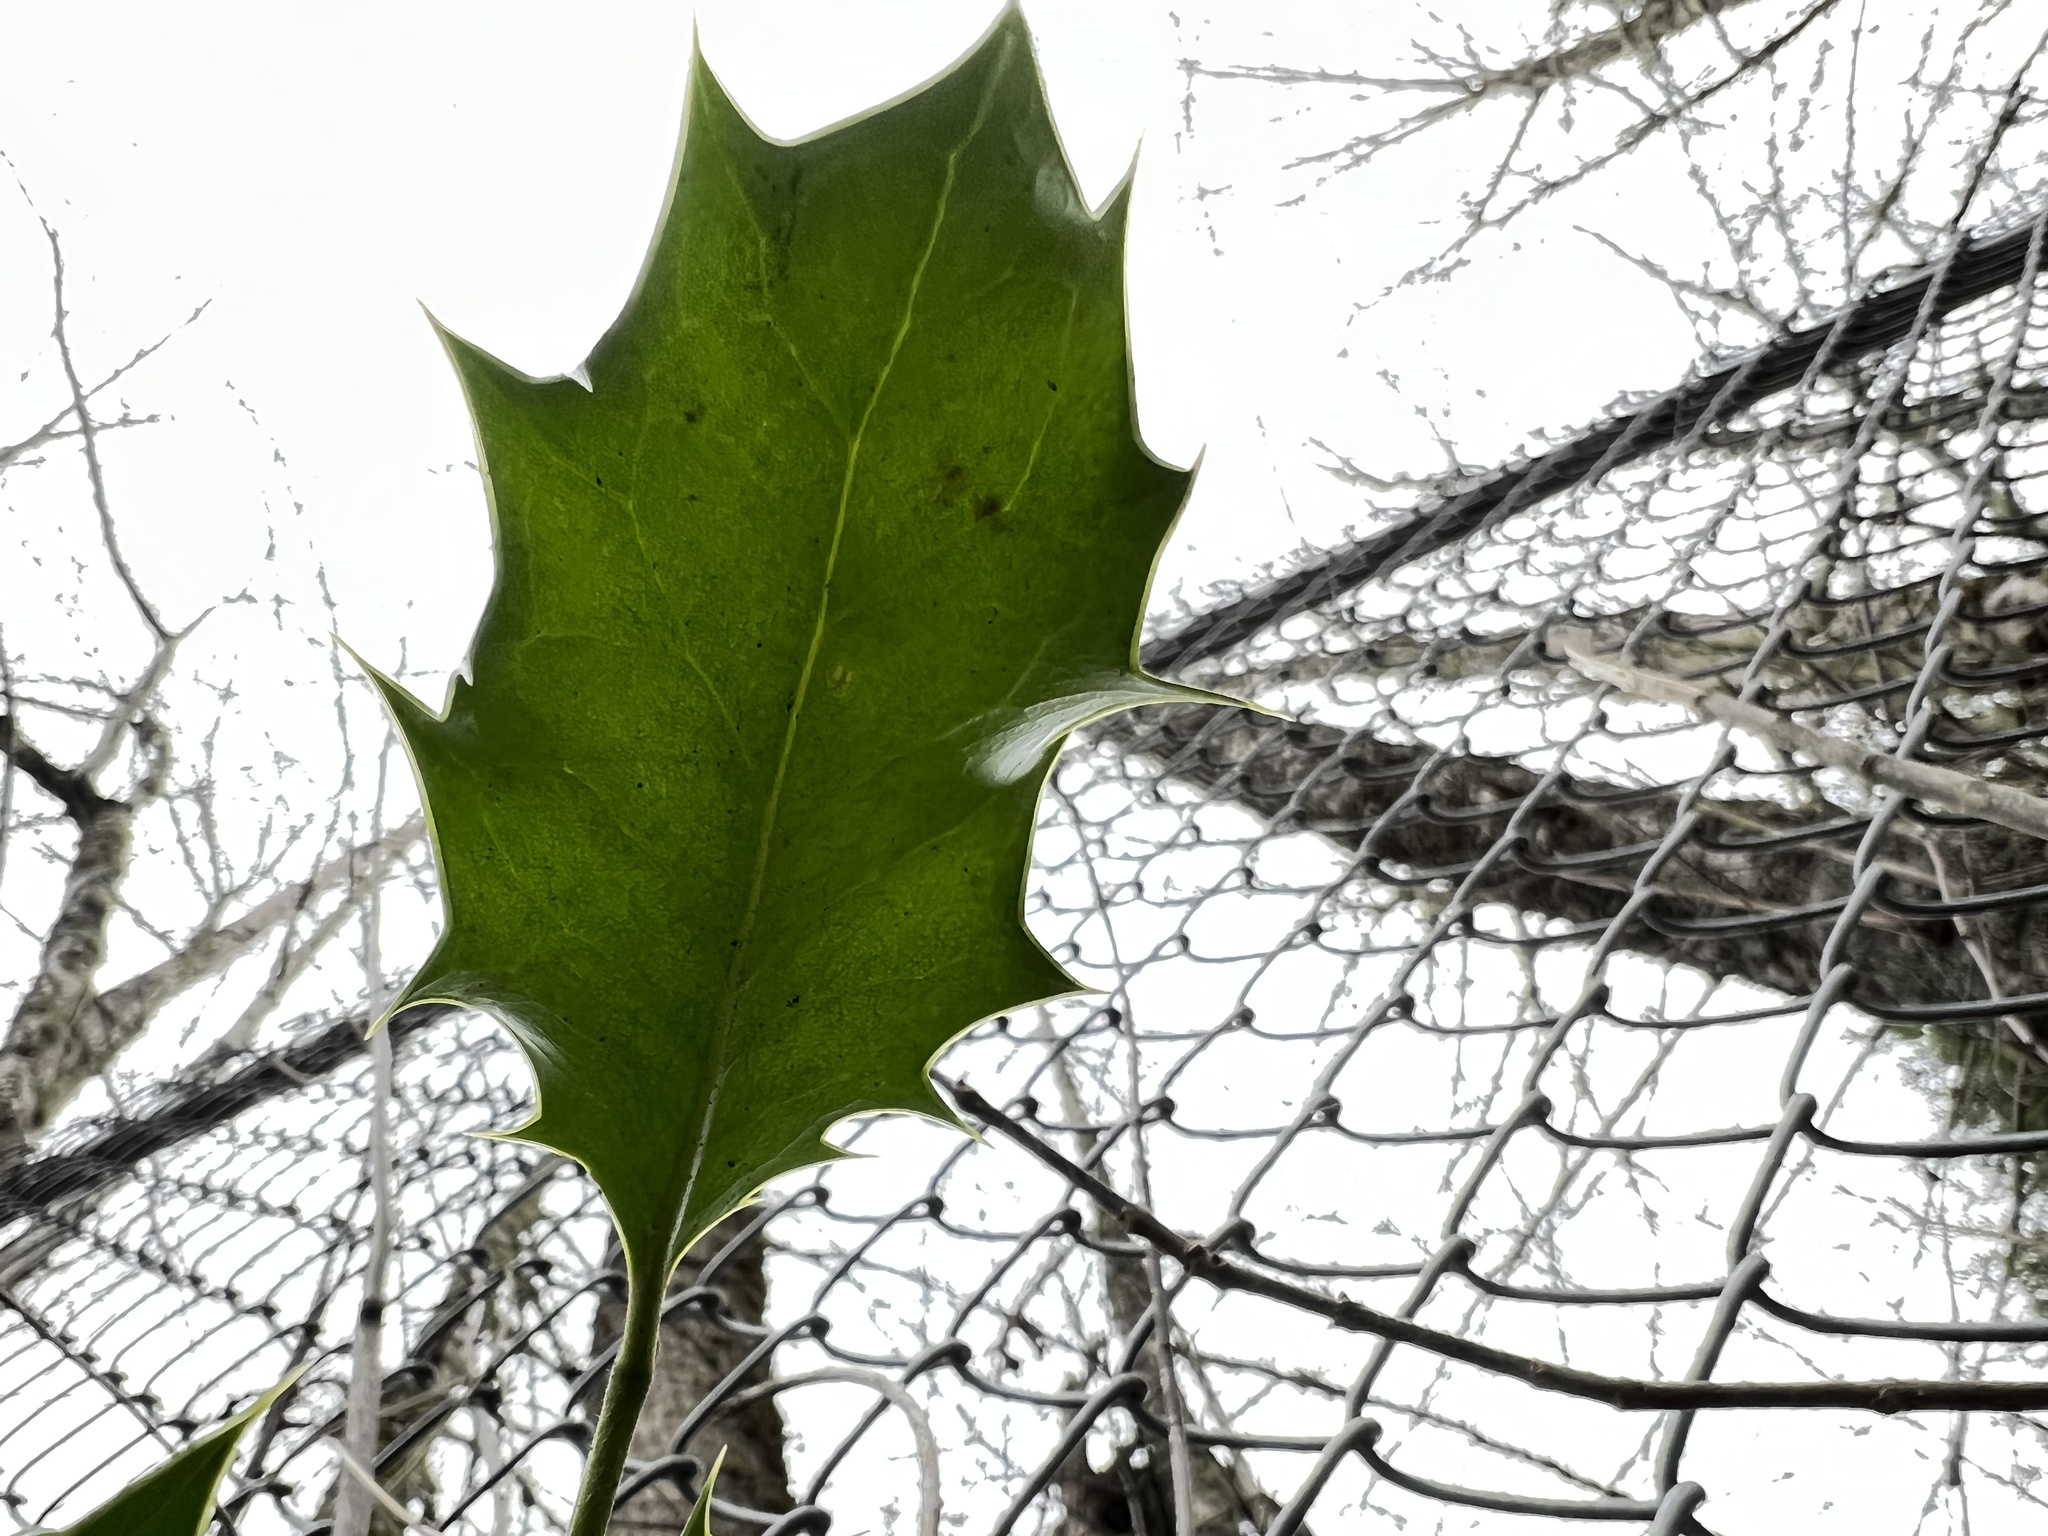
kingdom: Plantae
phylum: Tracheophyta
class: Magnoliopsida
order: Aquifoliales
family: Aquifoliaceae
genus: Ilex
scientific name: Ilex aquifolium
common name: English holly
